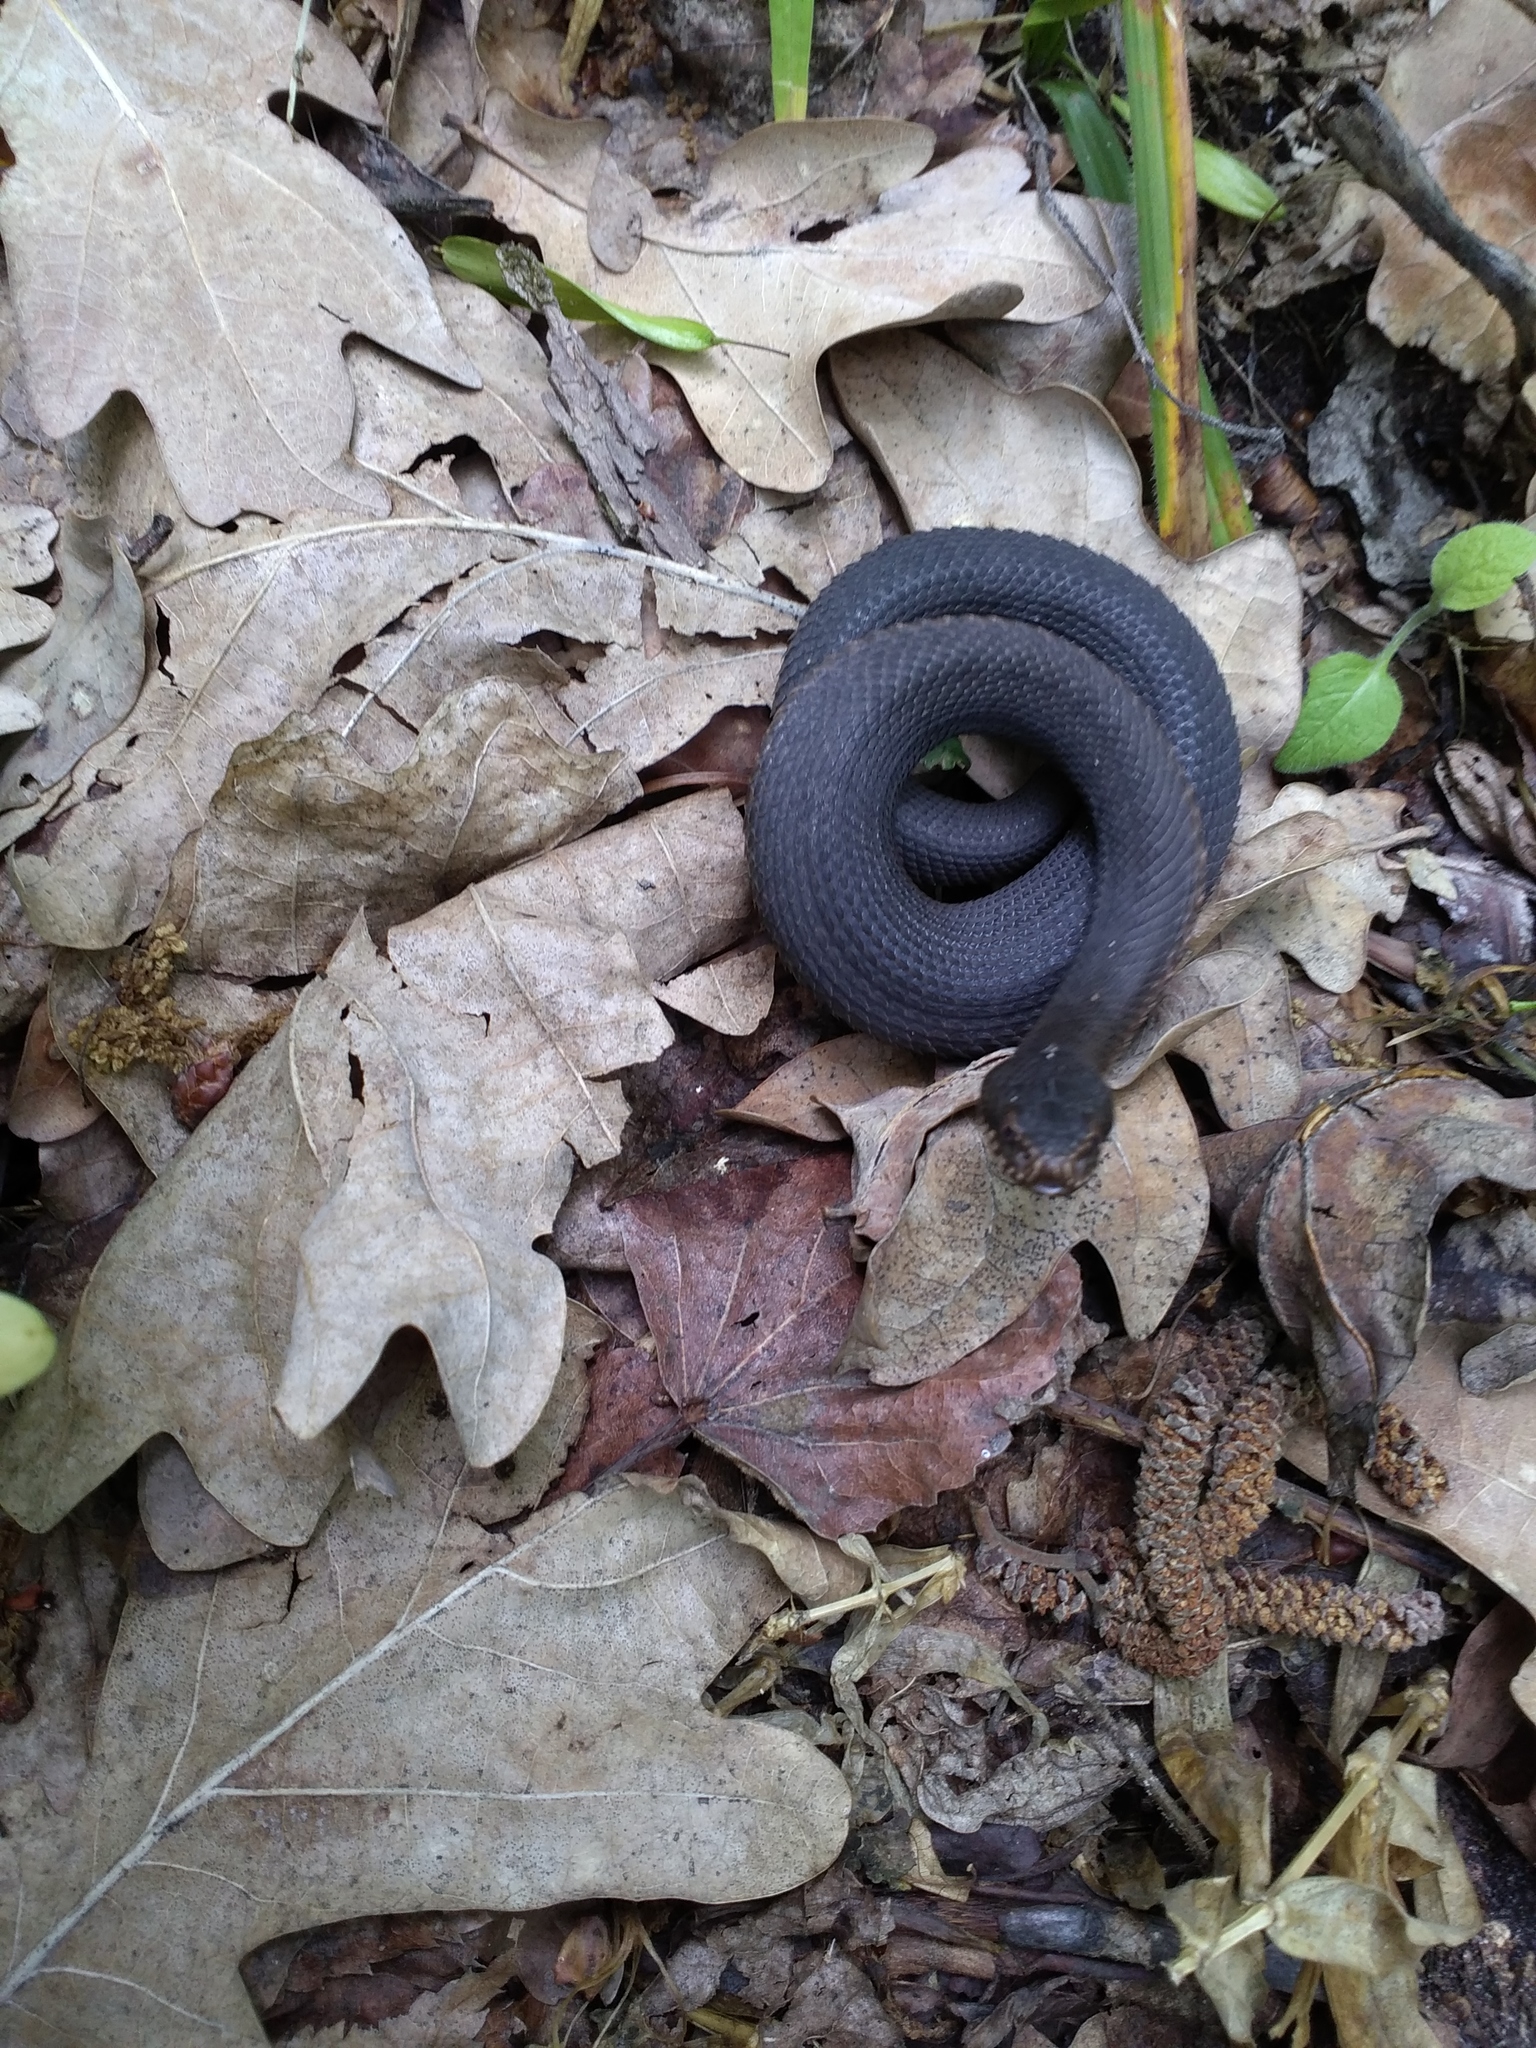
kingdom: Animalia
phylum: Chordata
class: Squamata
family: Viperidae
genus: Vipera
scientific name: Vipera nikolskii
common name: Adder
